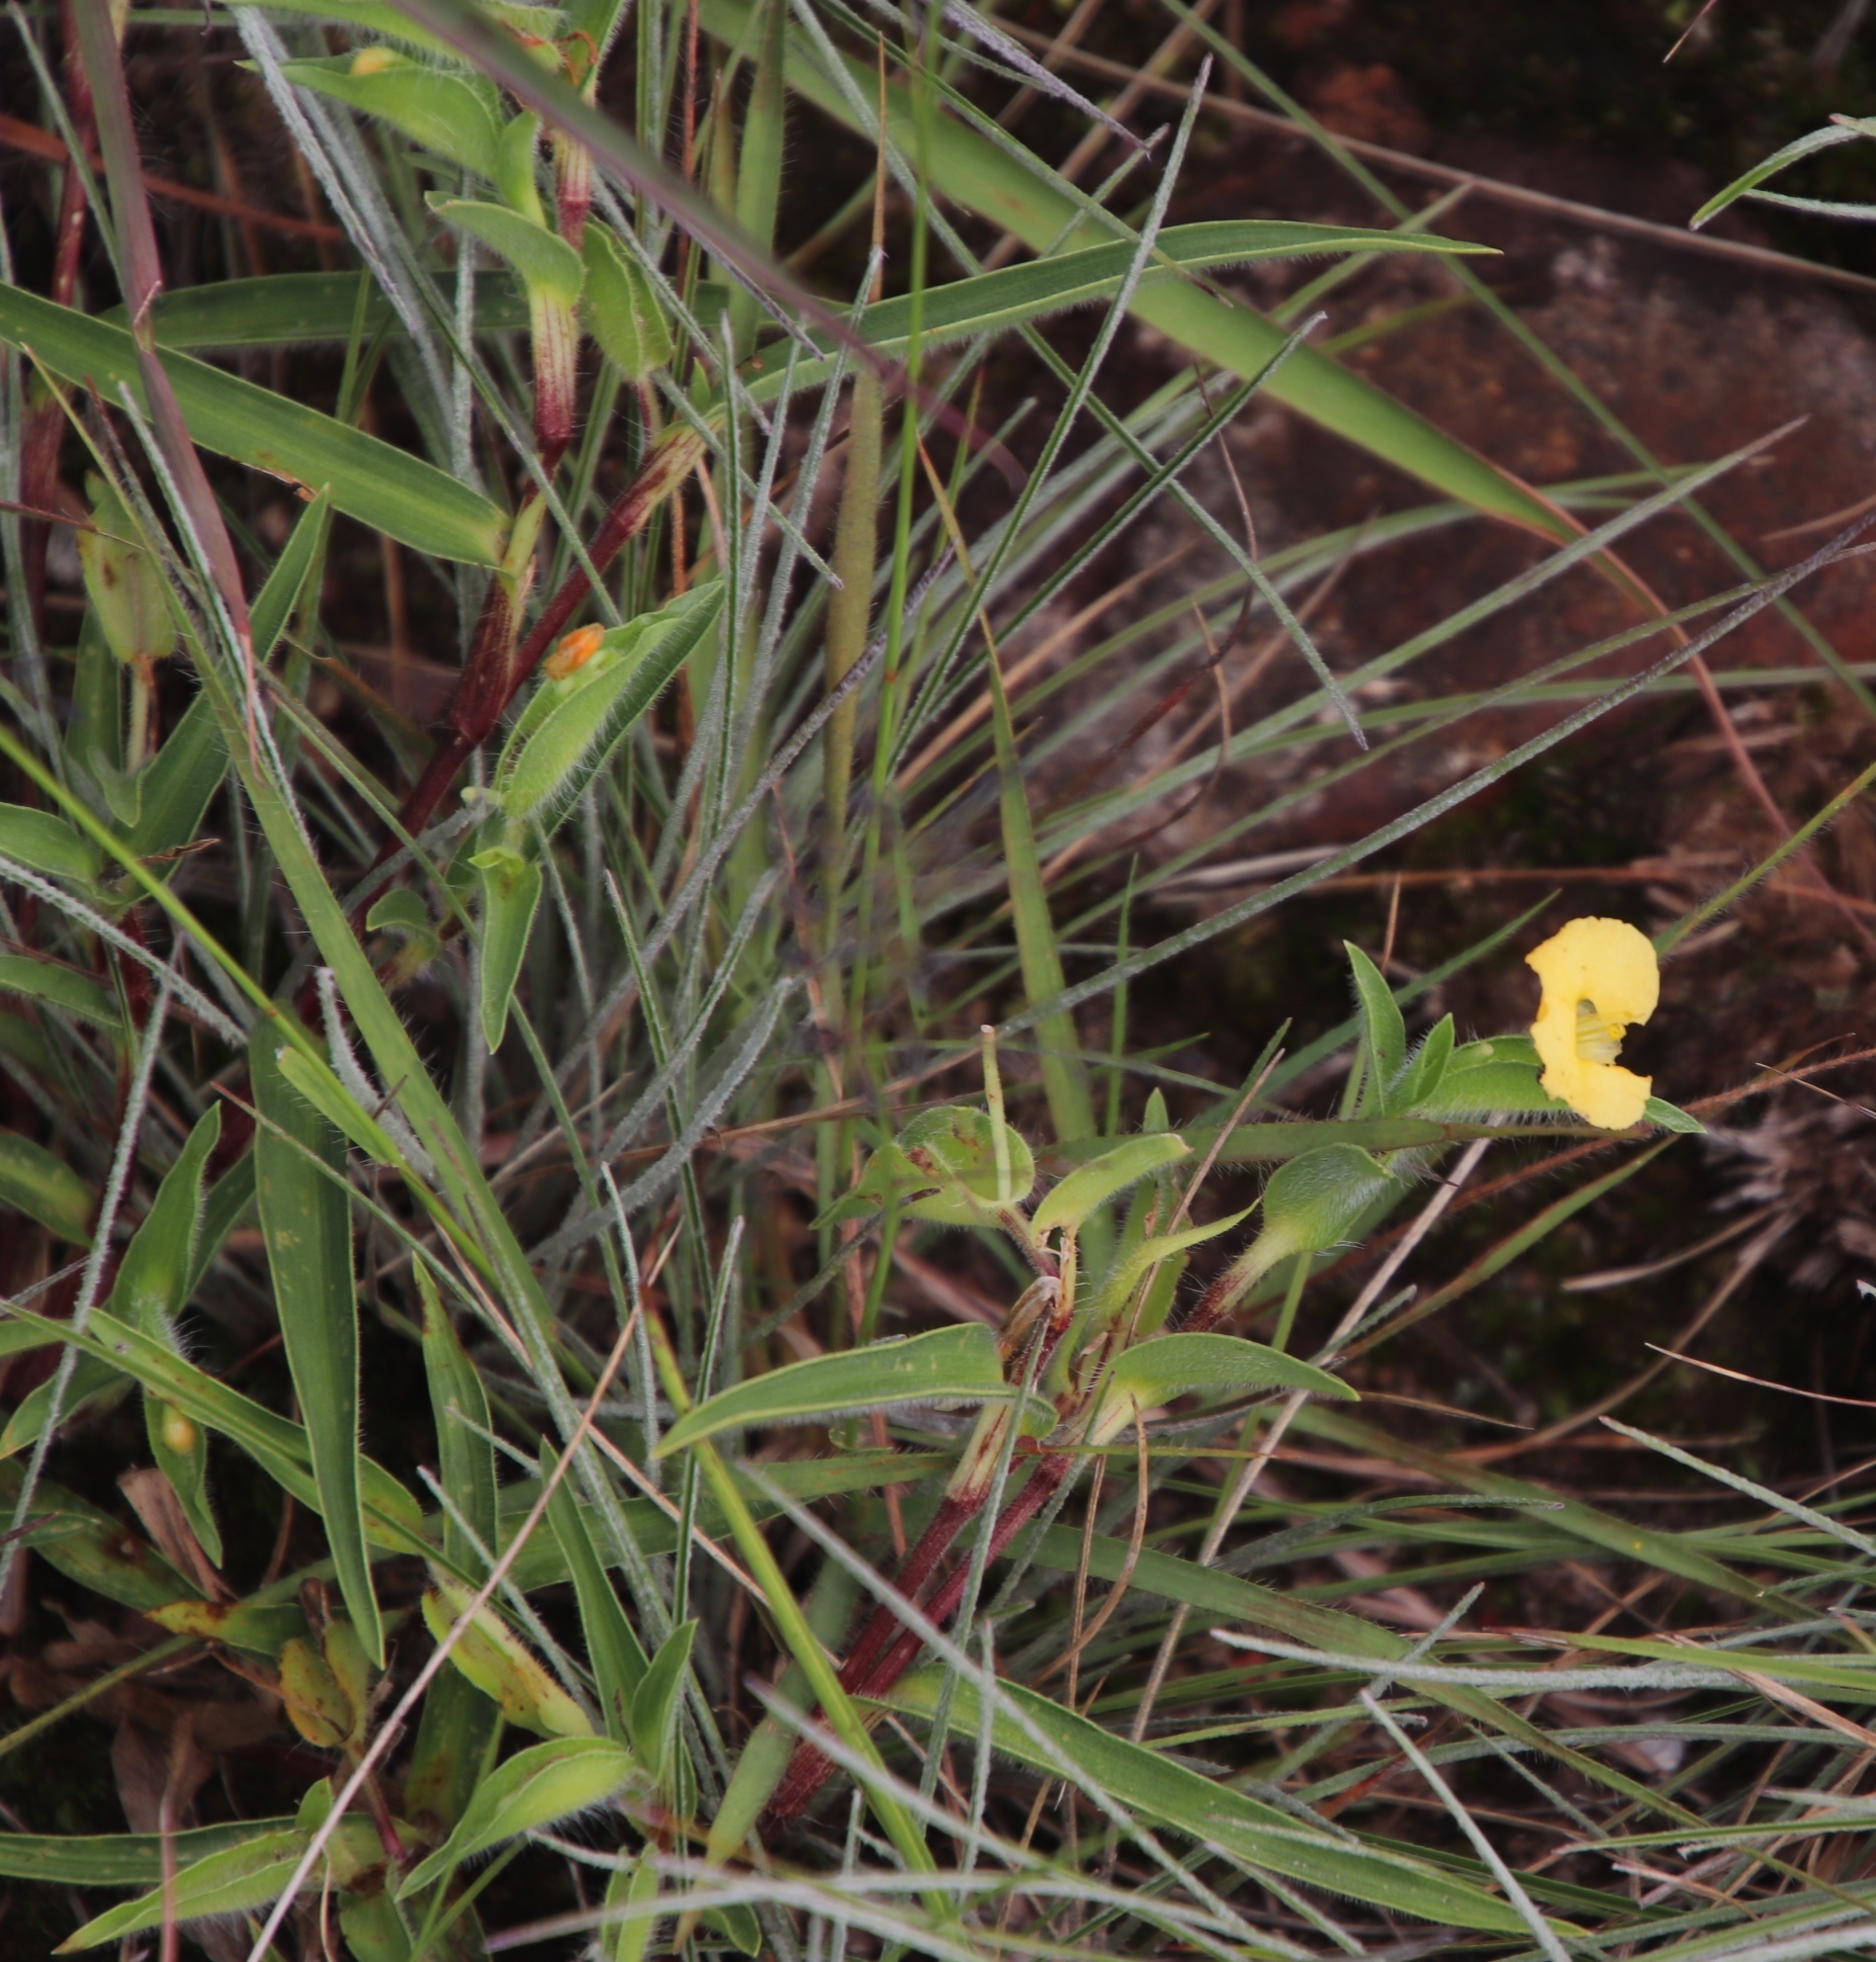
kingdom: Plantae
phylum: Tracheophyta
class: Liliopsida
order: Commelinales
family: Commelinaceae
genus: Commelina
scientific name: Commelina africana
